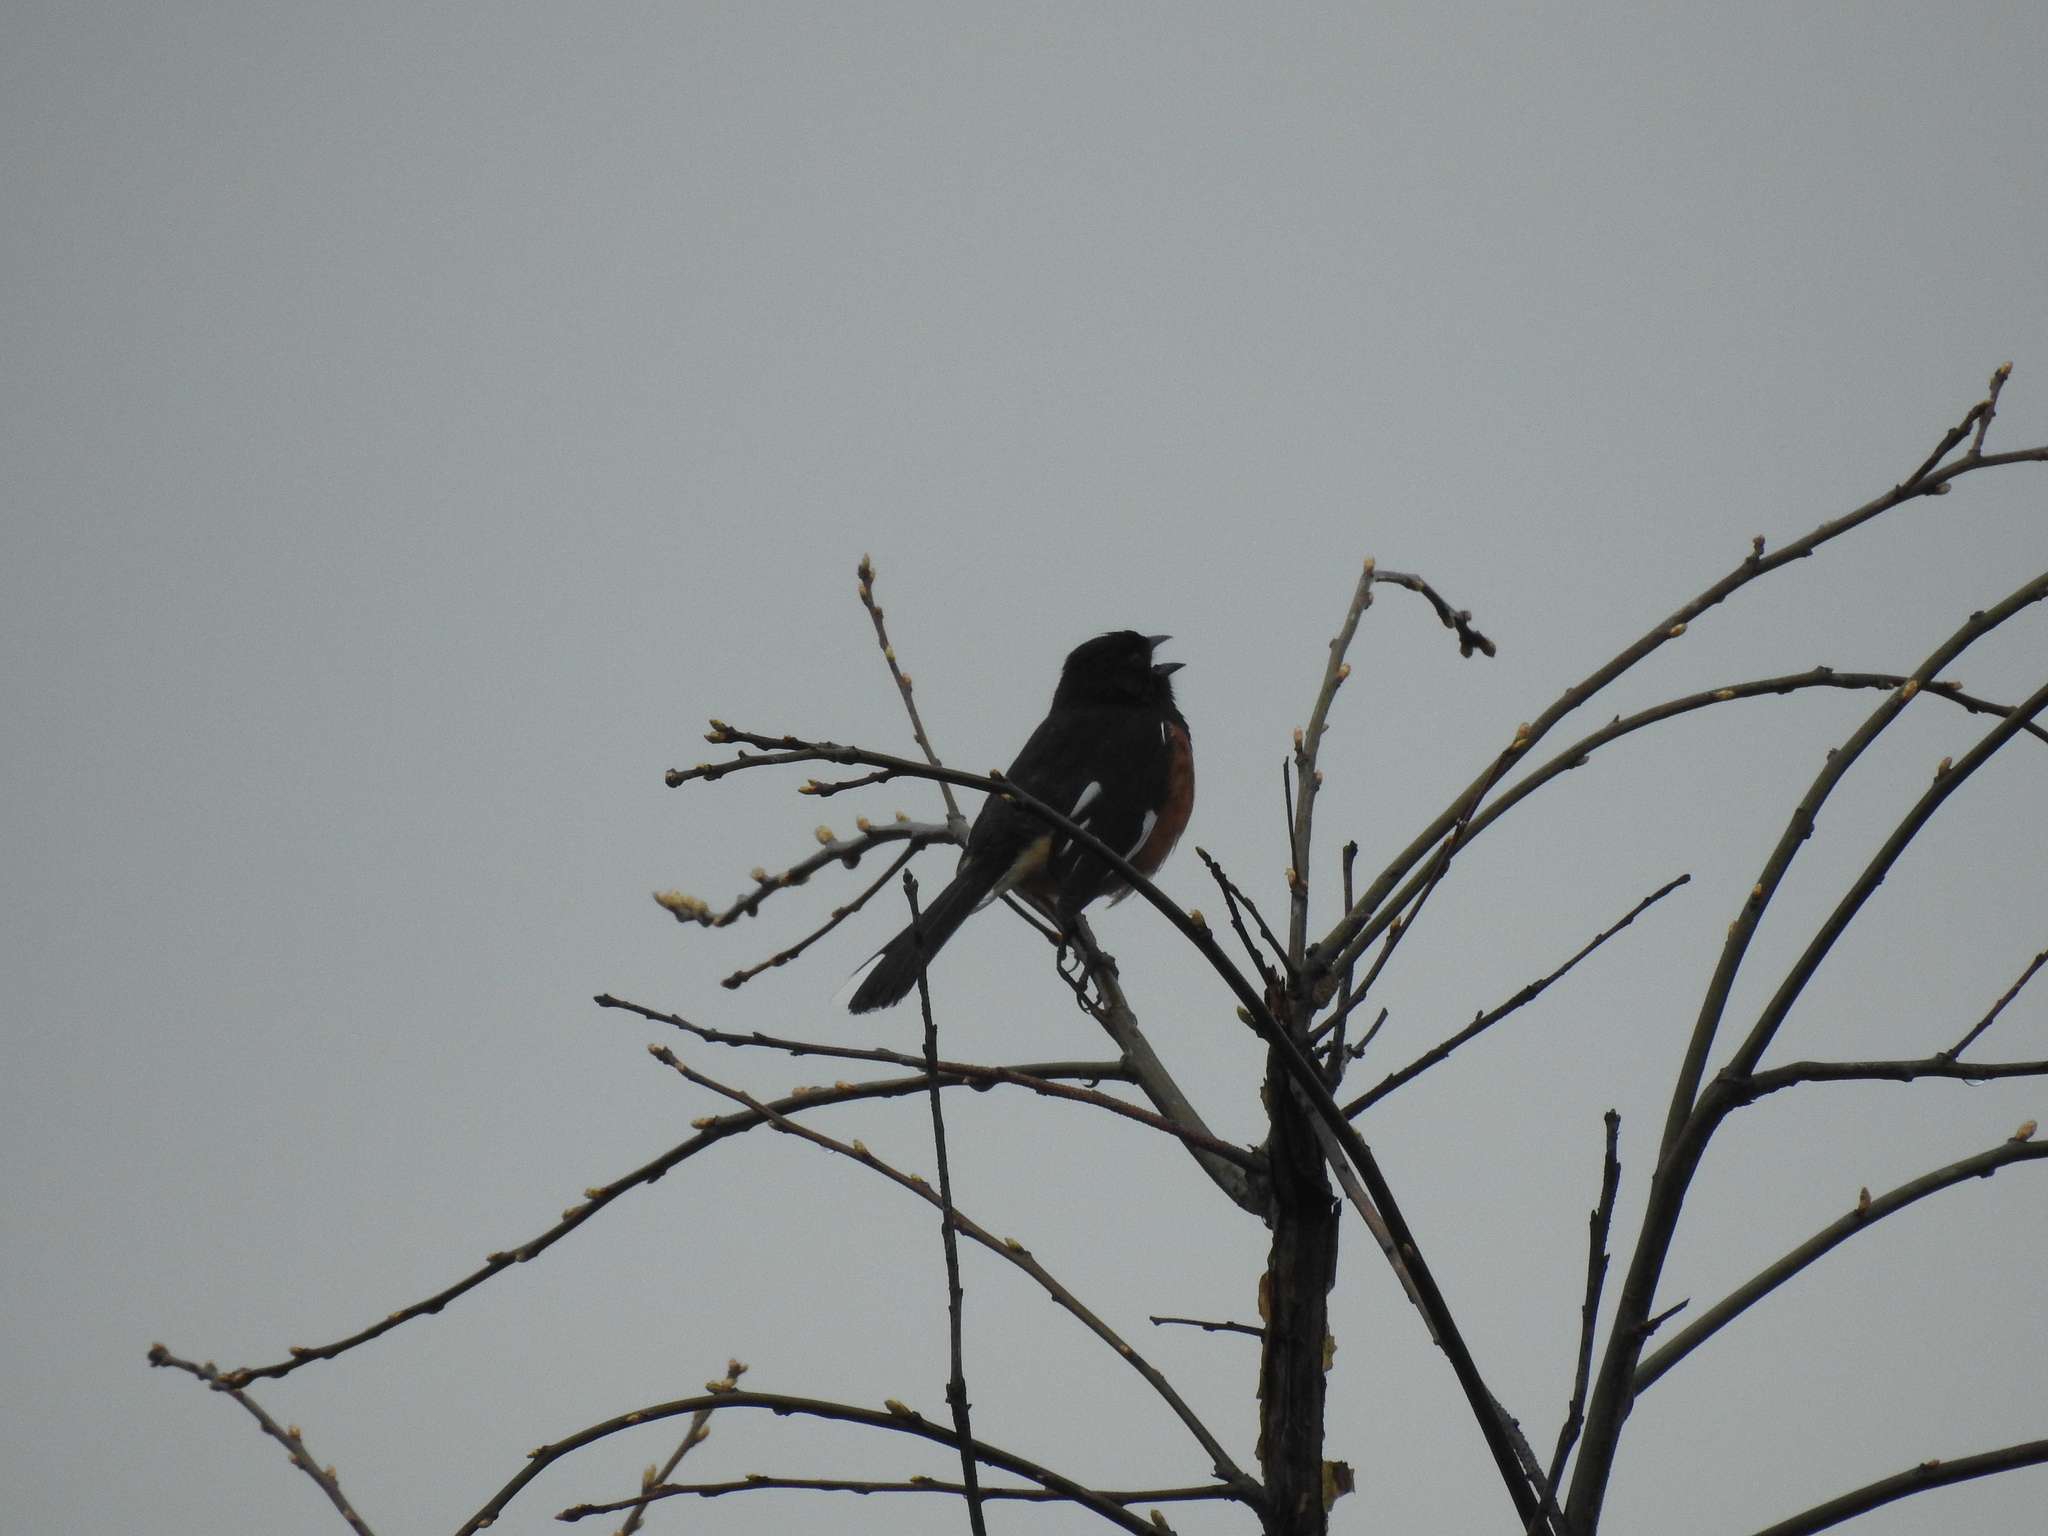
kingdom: Animalia
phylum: Chordata
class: Aves
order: Passeriformes
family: Passerellidae
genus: Pipilo
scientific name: Pipilo erythrophthalmus
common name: Eastern towhee
